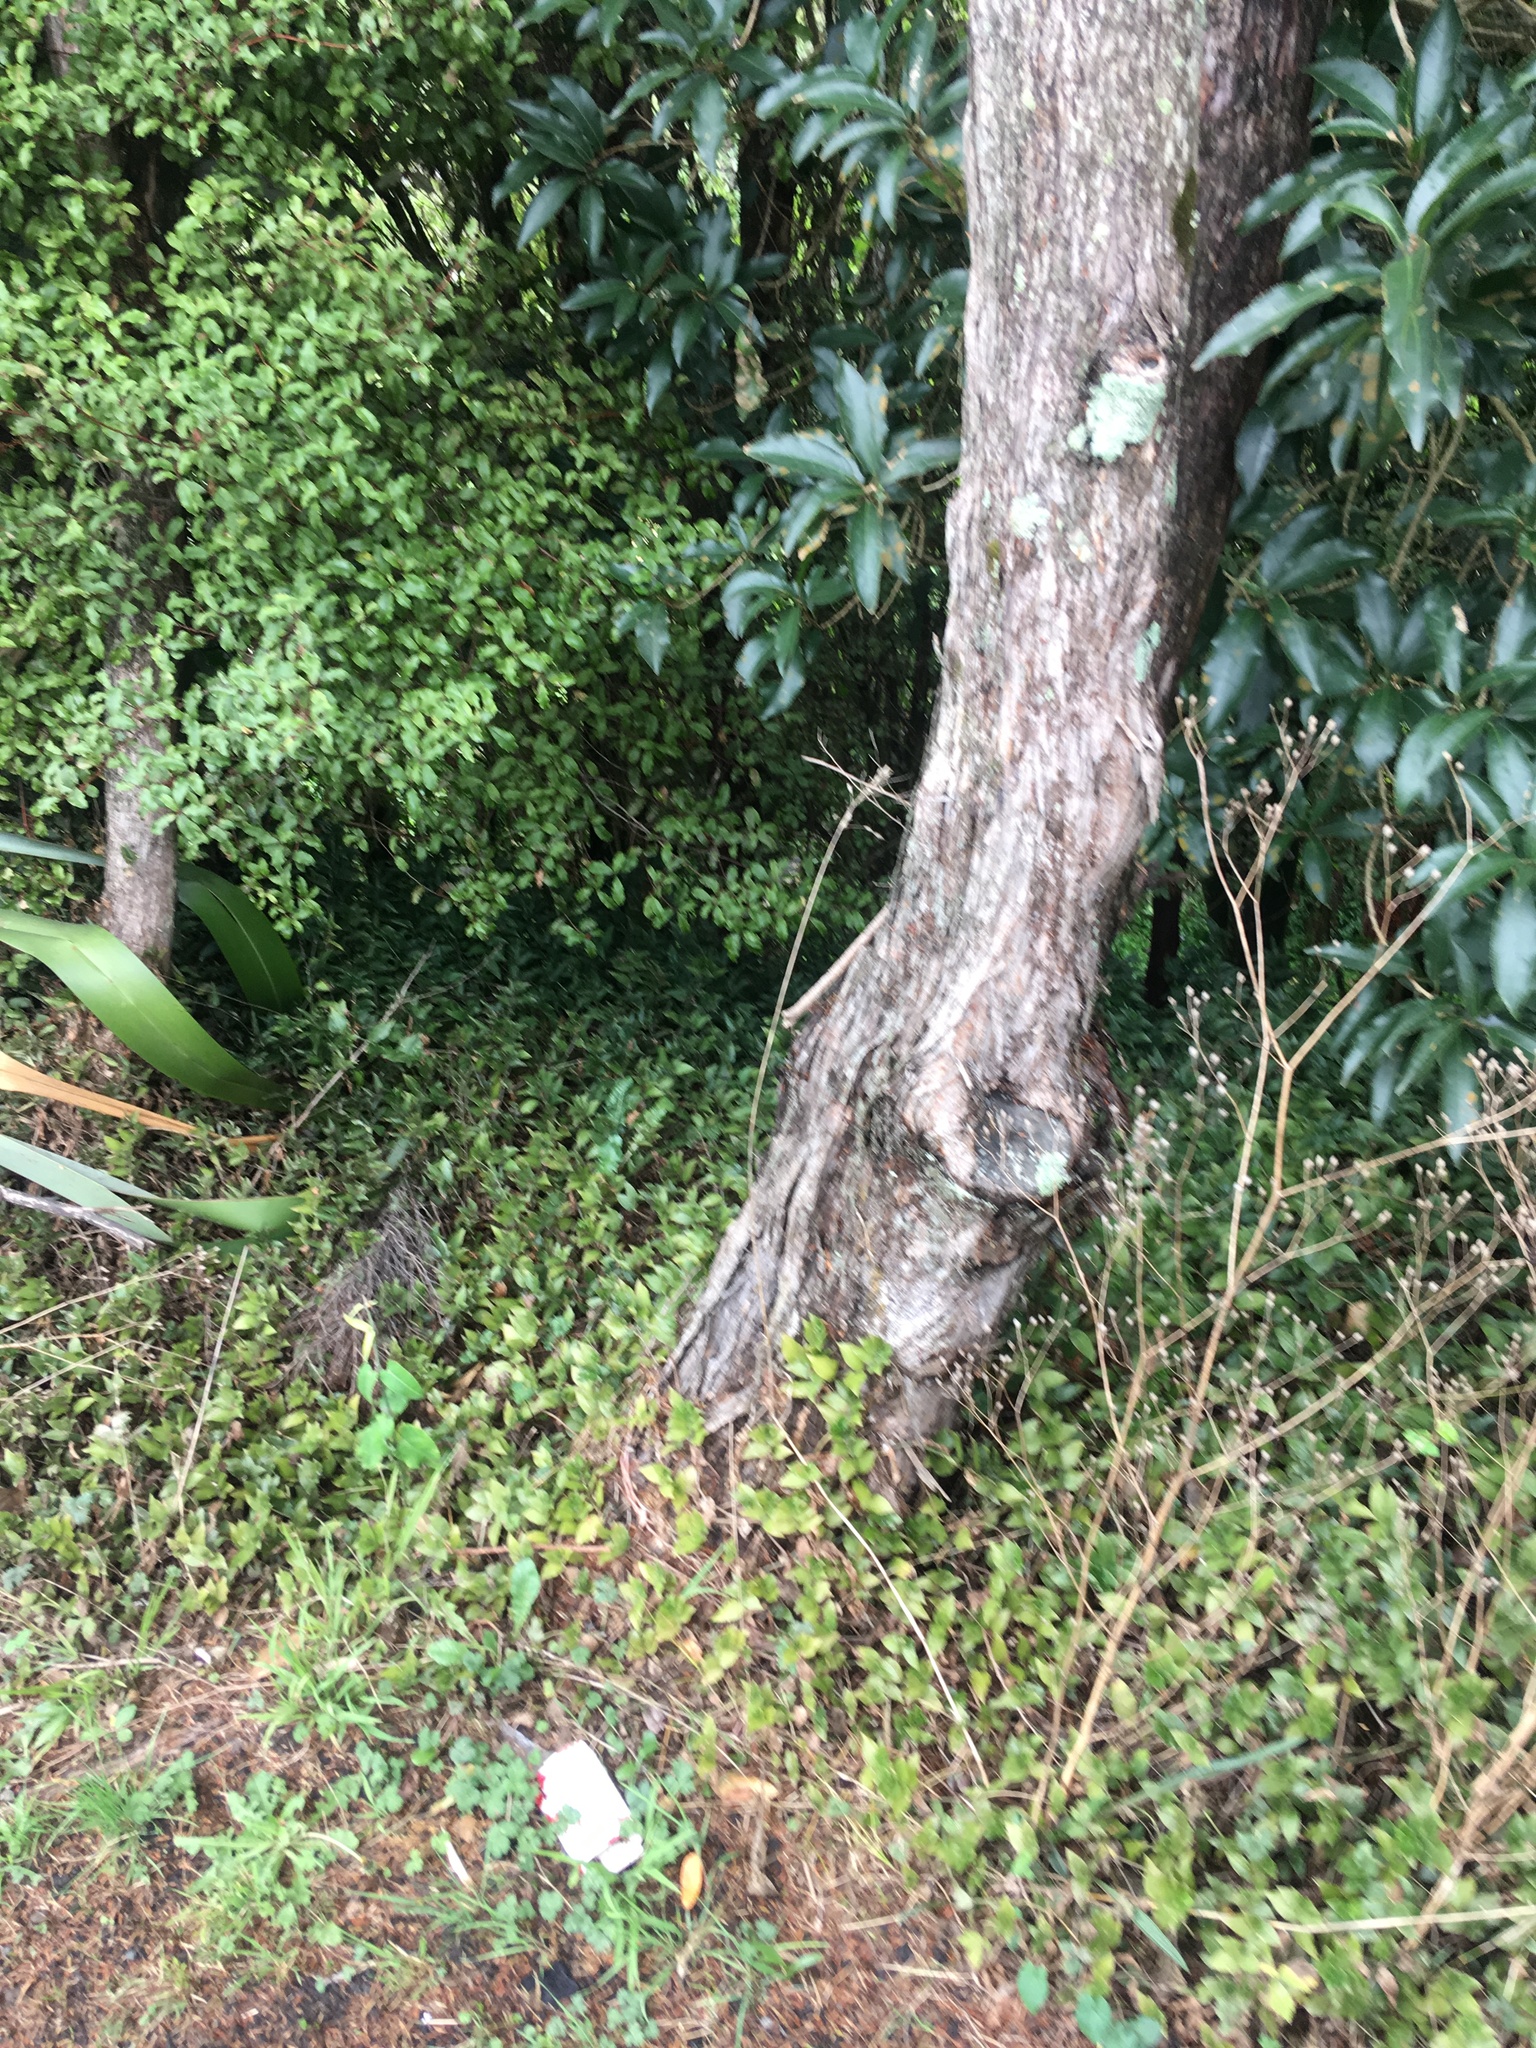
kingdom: Plantae
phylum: Tracheophyta
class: Liliopsida
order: Commelinales
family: Commelinaceae
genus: Tradescantia
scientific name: Tradescantia fluminensis
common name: Wandering-jew
